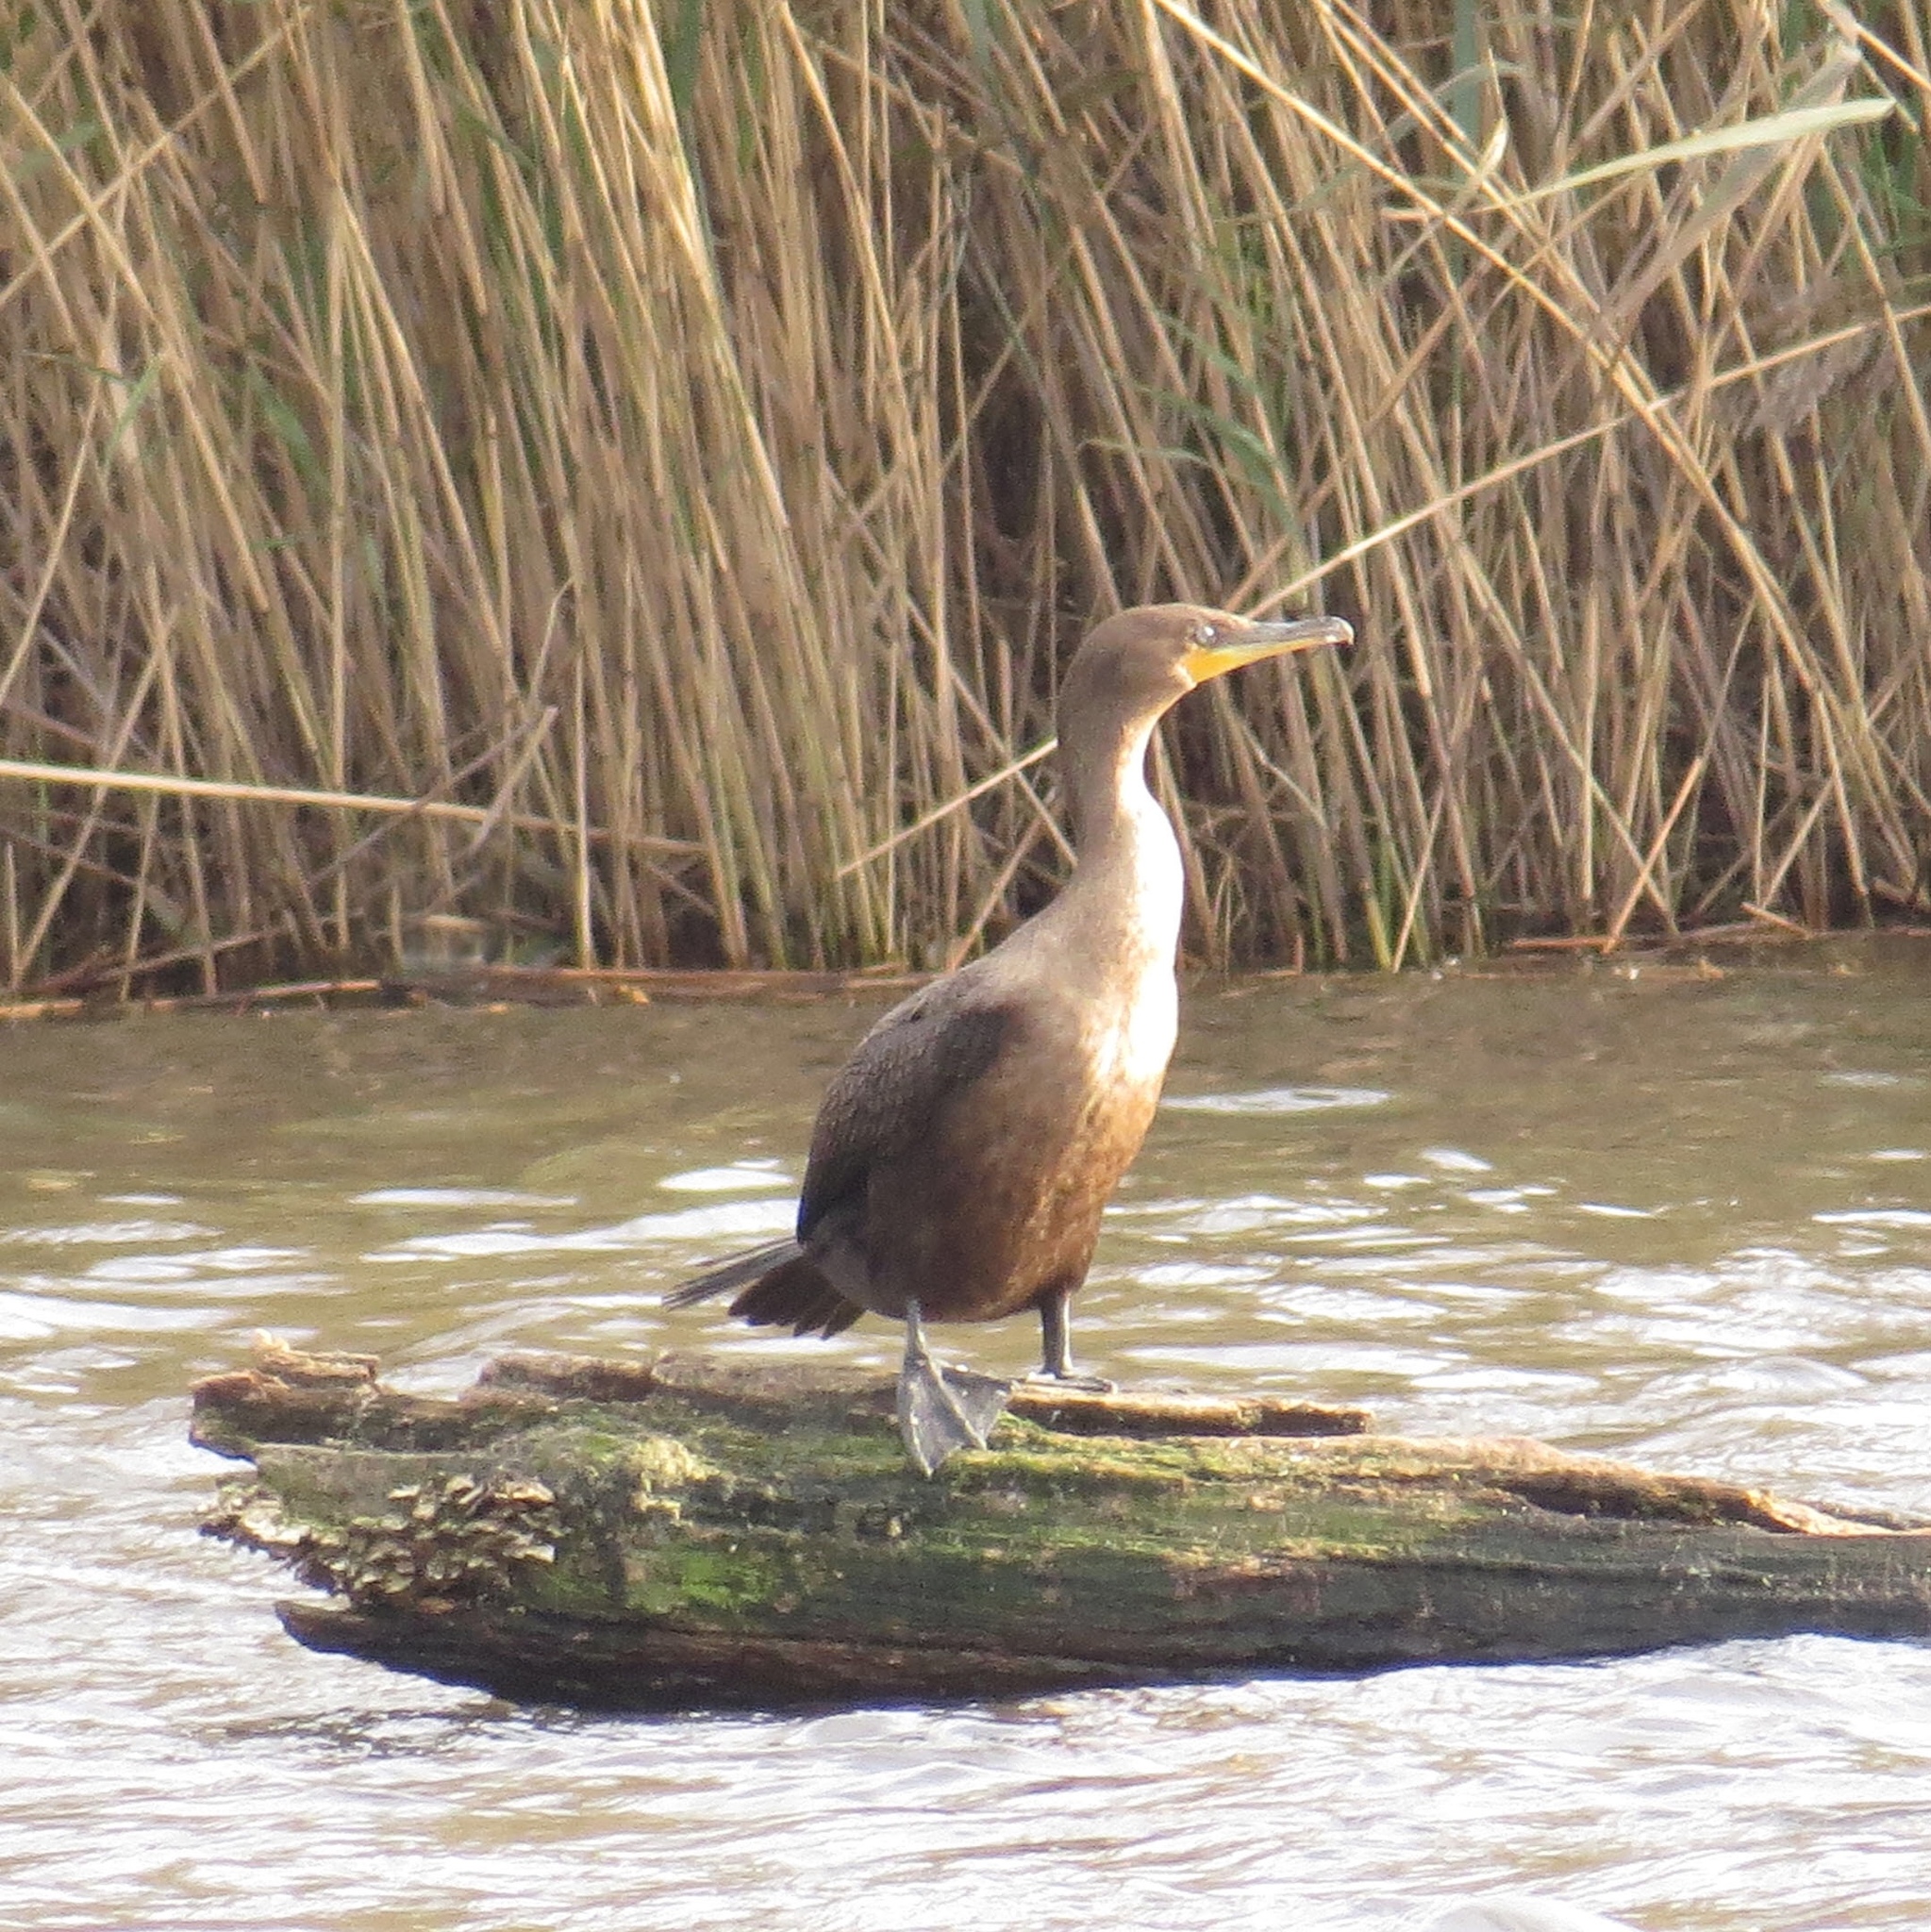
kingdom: Animalia
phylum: Chordata
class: Aves
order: Suliformes
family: Phalacrocoracidae
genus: Phalacrocorax
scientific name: Phalacrocorax auritus
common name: Double-crested cormorant
